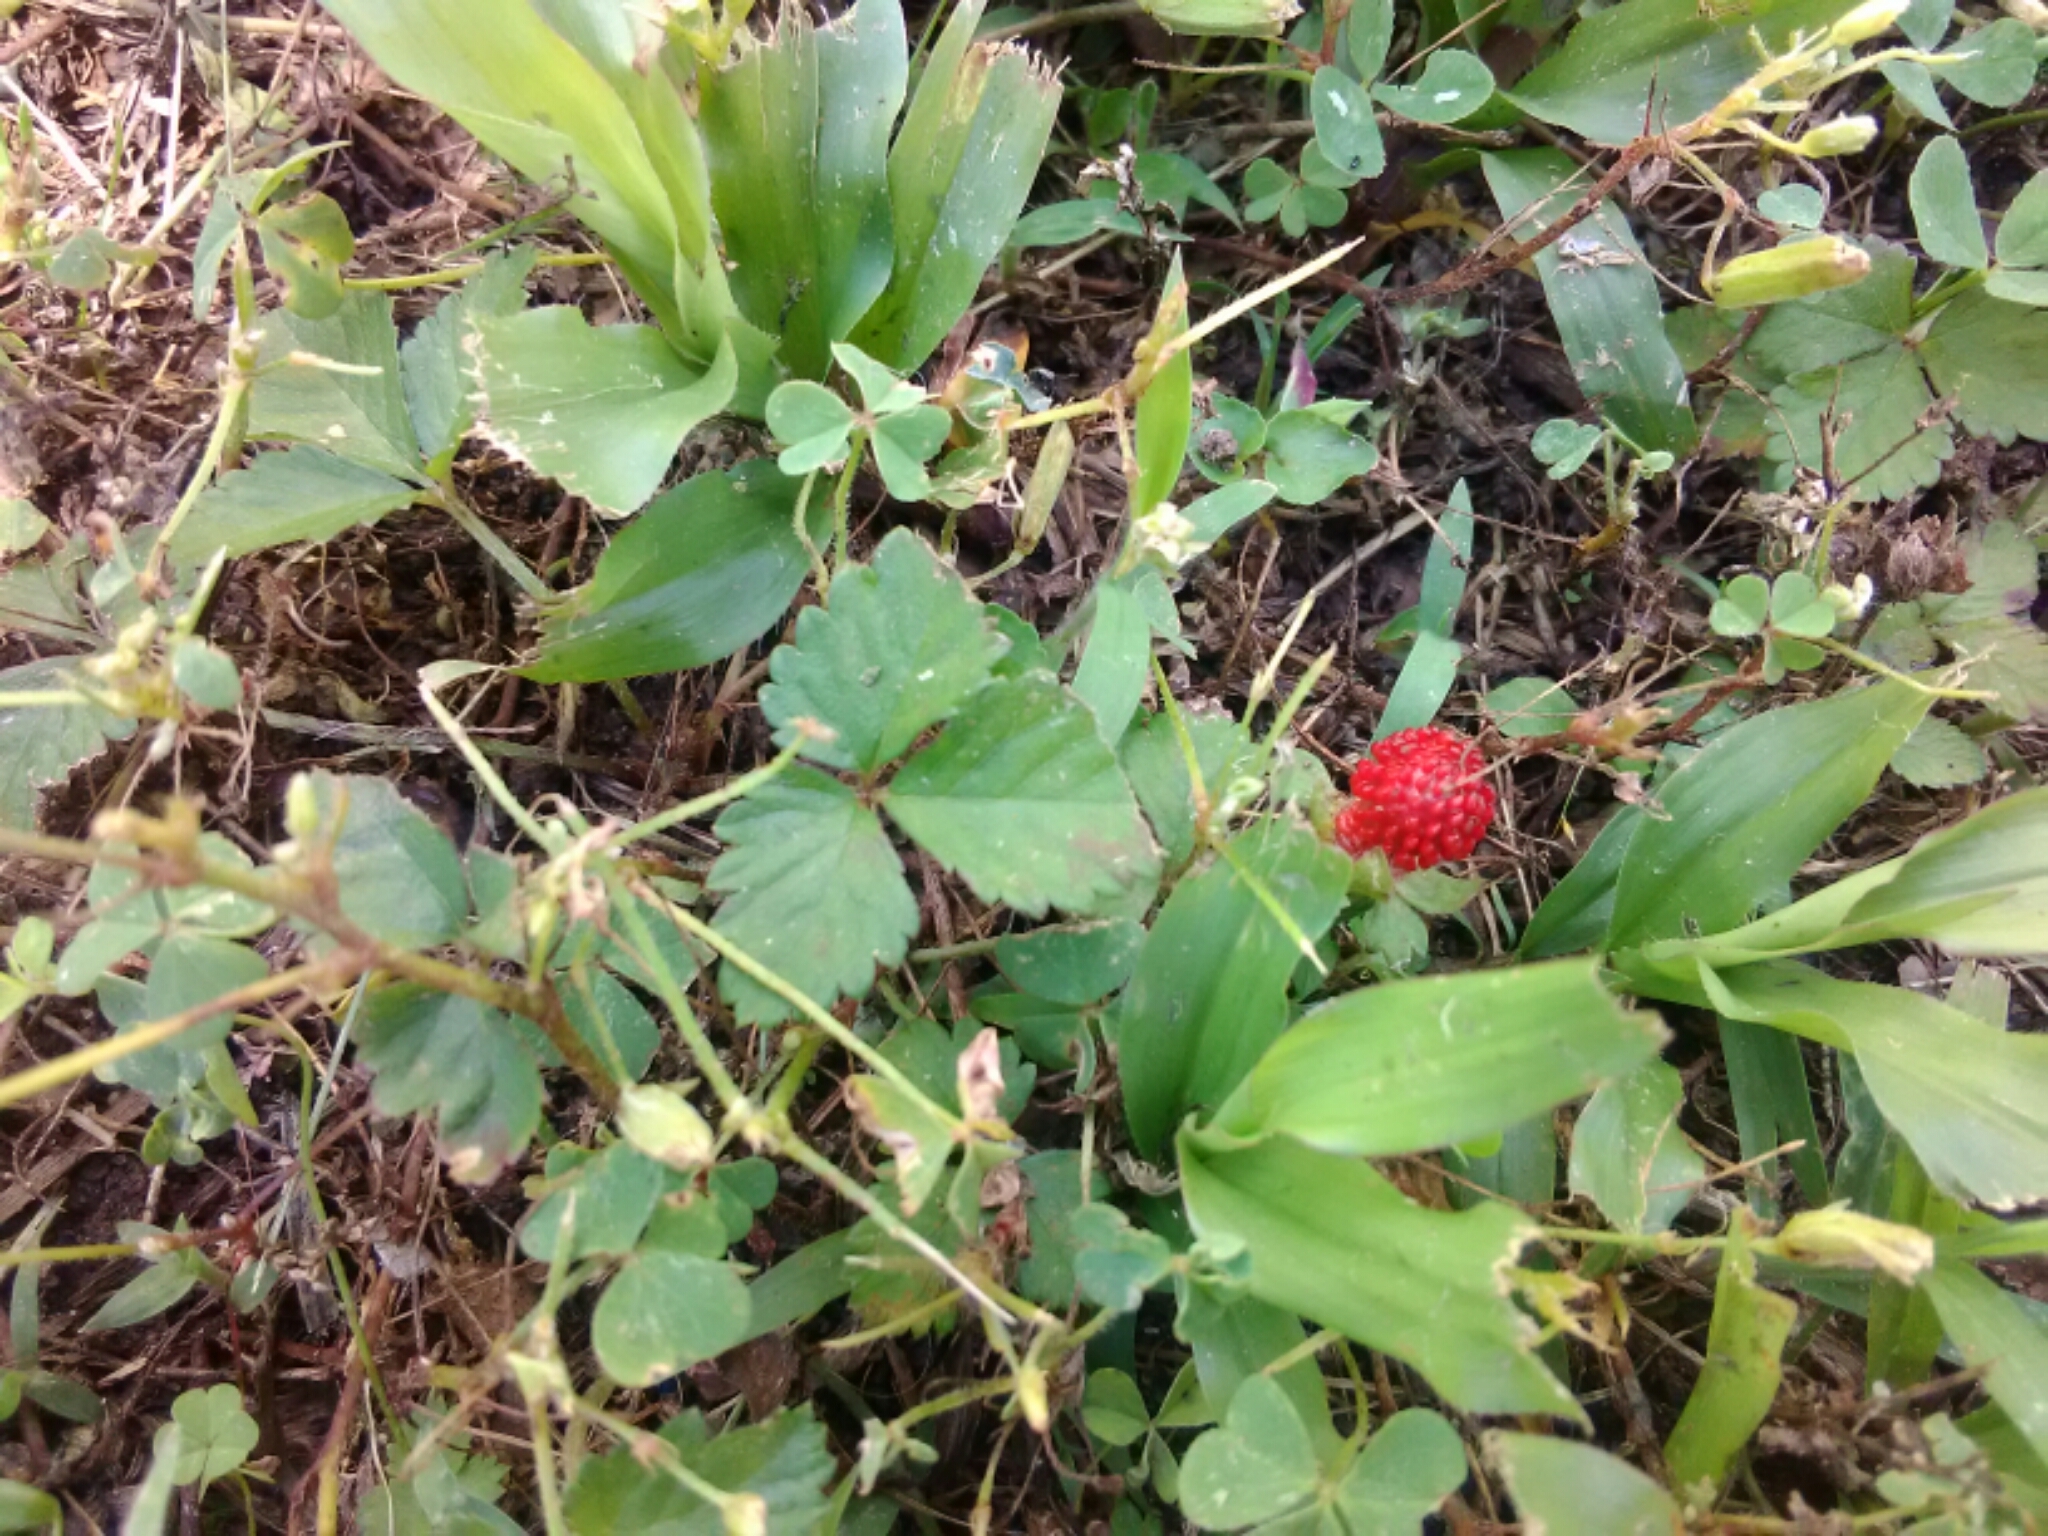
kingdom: Plantae
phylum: Tracheophyta
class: Magnoliopsida
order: Rosales
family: Rosaceae
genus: Potentilla
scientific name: Potentilla indica
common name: Yellow-flowered strawberry
